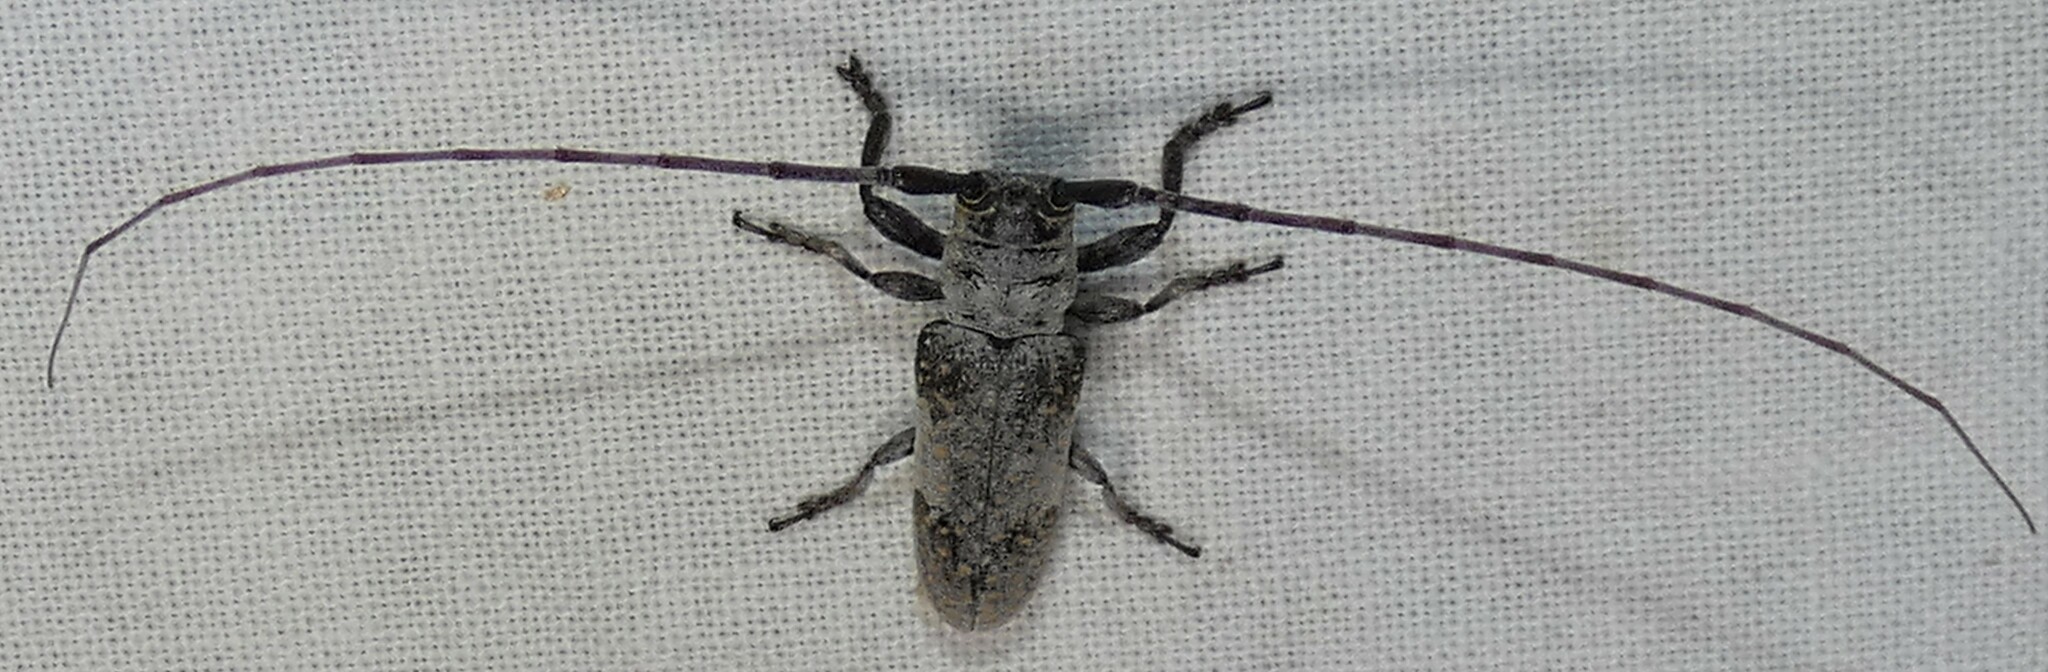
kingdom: Animalia
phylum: Arthropoda
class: Insecta
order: Coleoptera
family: Cerambycidae
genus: Oncideres
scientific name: Oncideres cingulata
